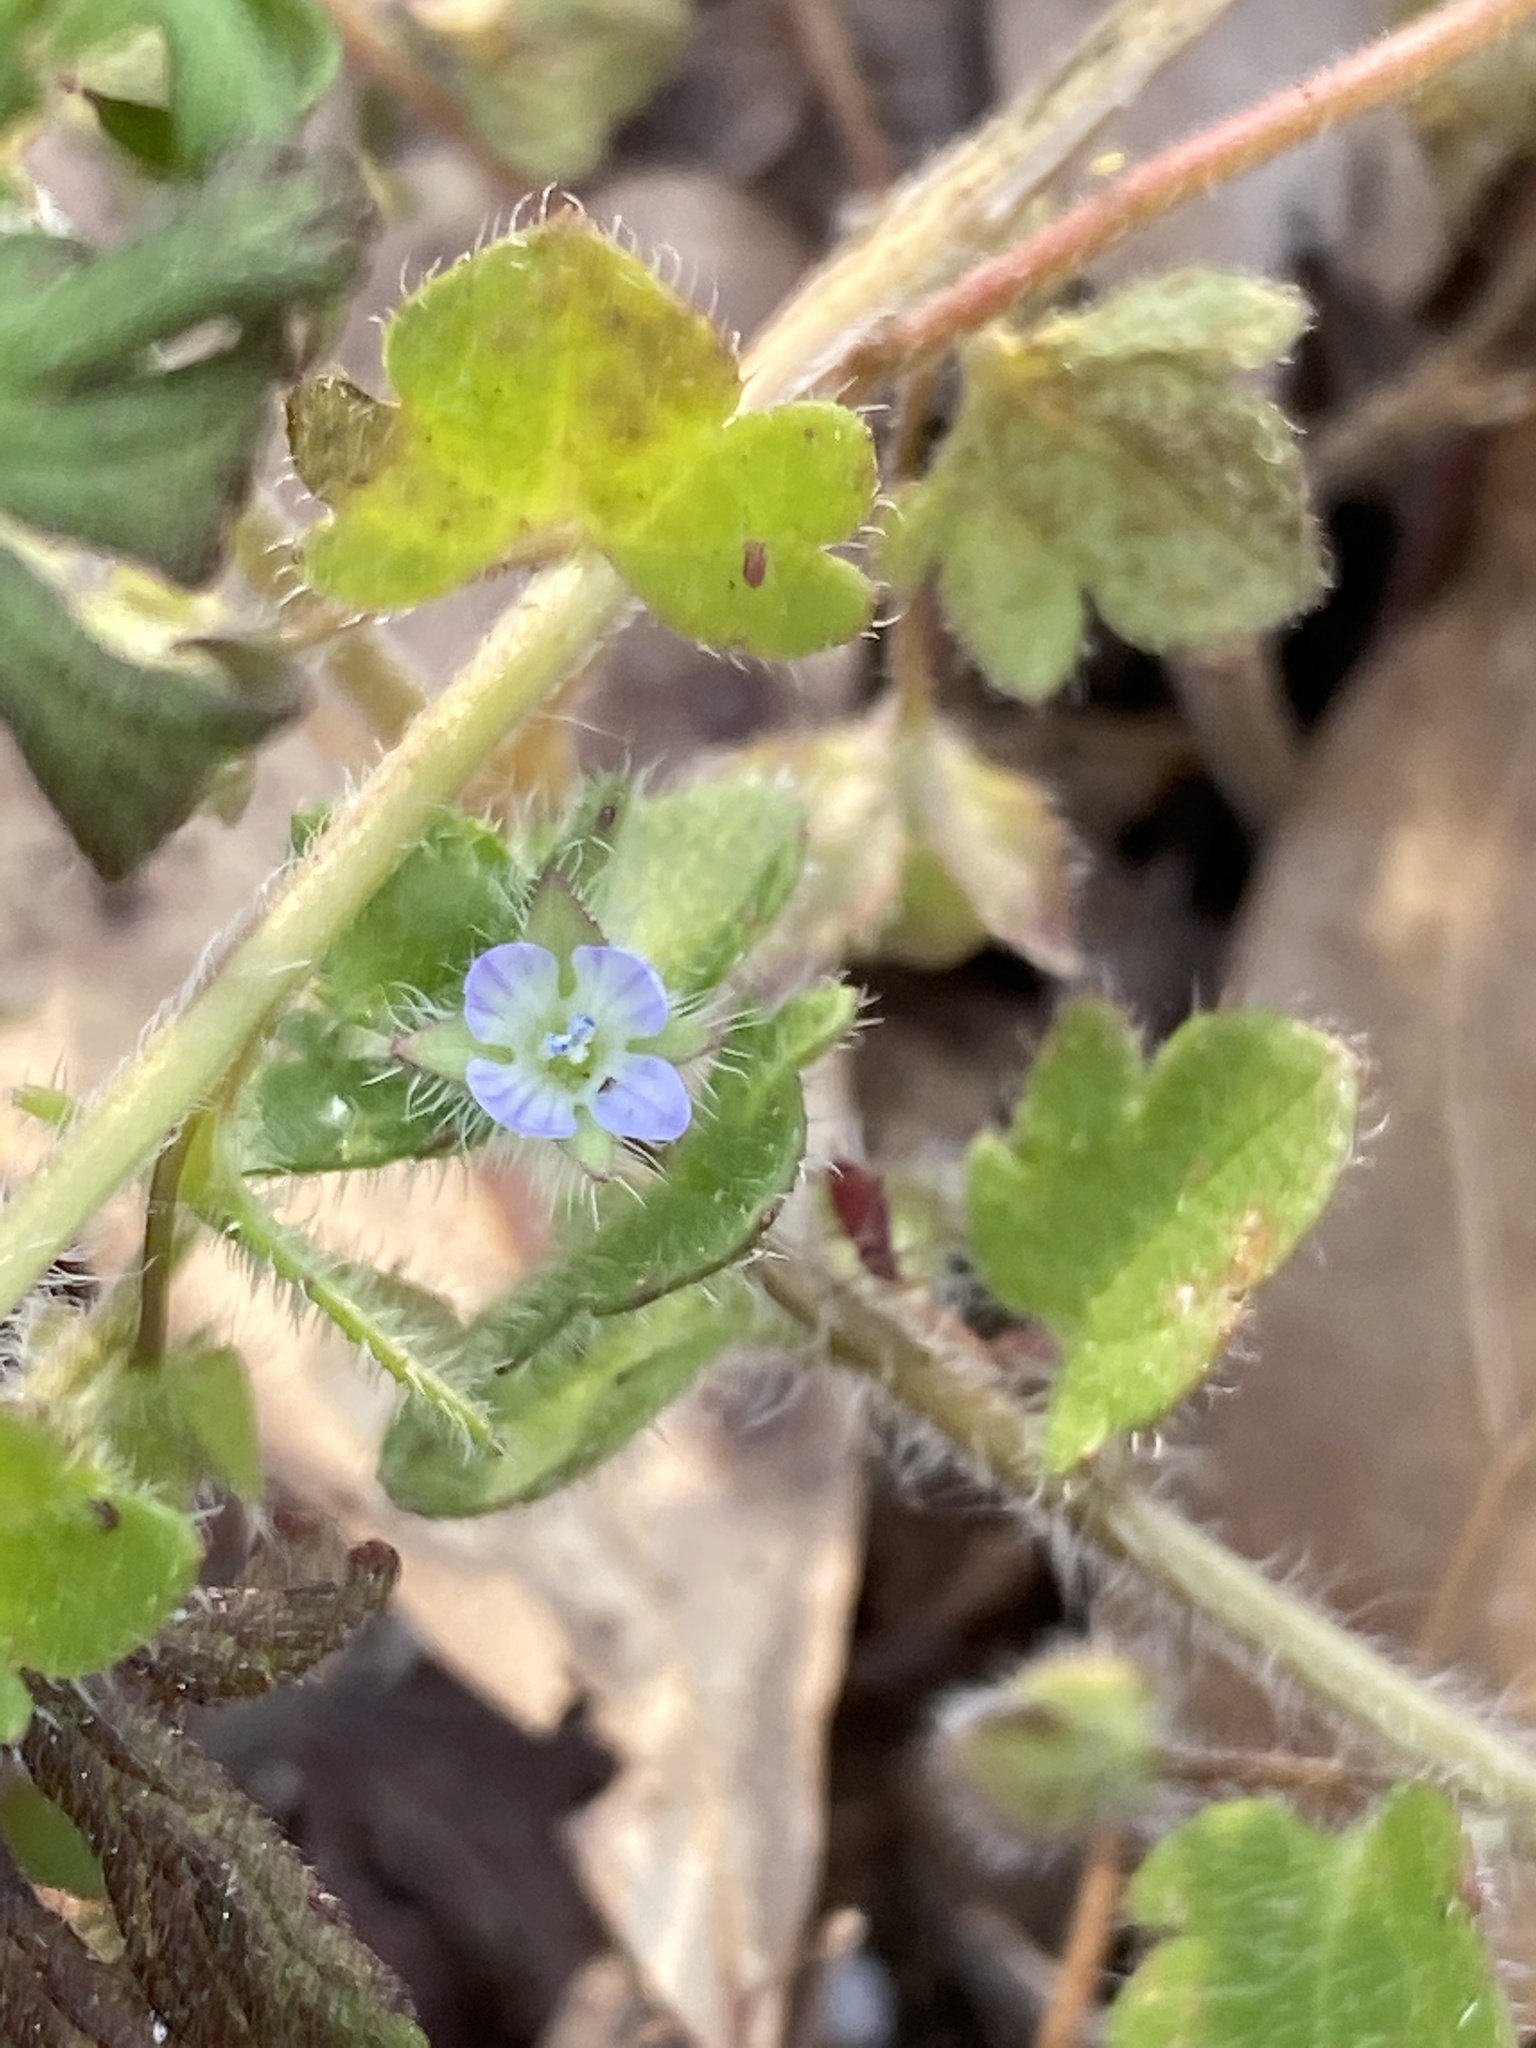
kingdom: Plantae
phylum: Tracheophyta
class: Magnoliopsida
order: Lamiales
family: Plantaginaceae
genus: Veronica
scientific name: Veronica hederifolia
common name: Ivy-leaved speedwell
